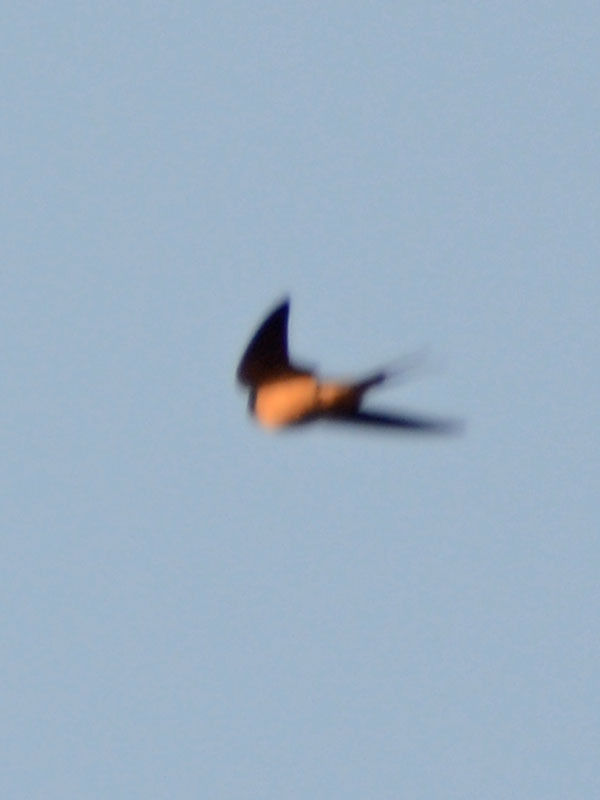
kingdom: Animalia
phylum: Chordata
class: Aves
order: Passeriformes
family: Hirundinidae
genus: Hirundo
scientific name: Hirundo rustica
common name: Barn swallow
